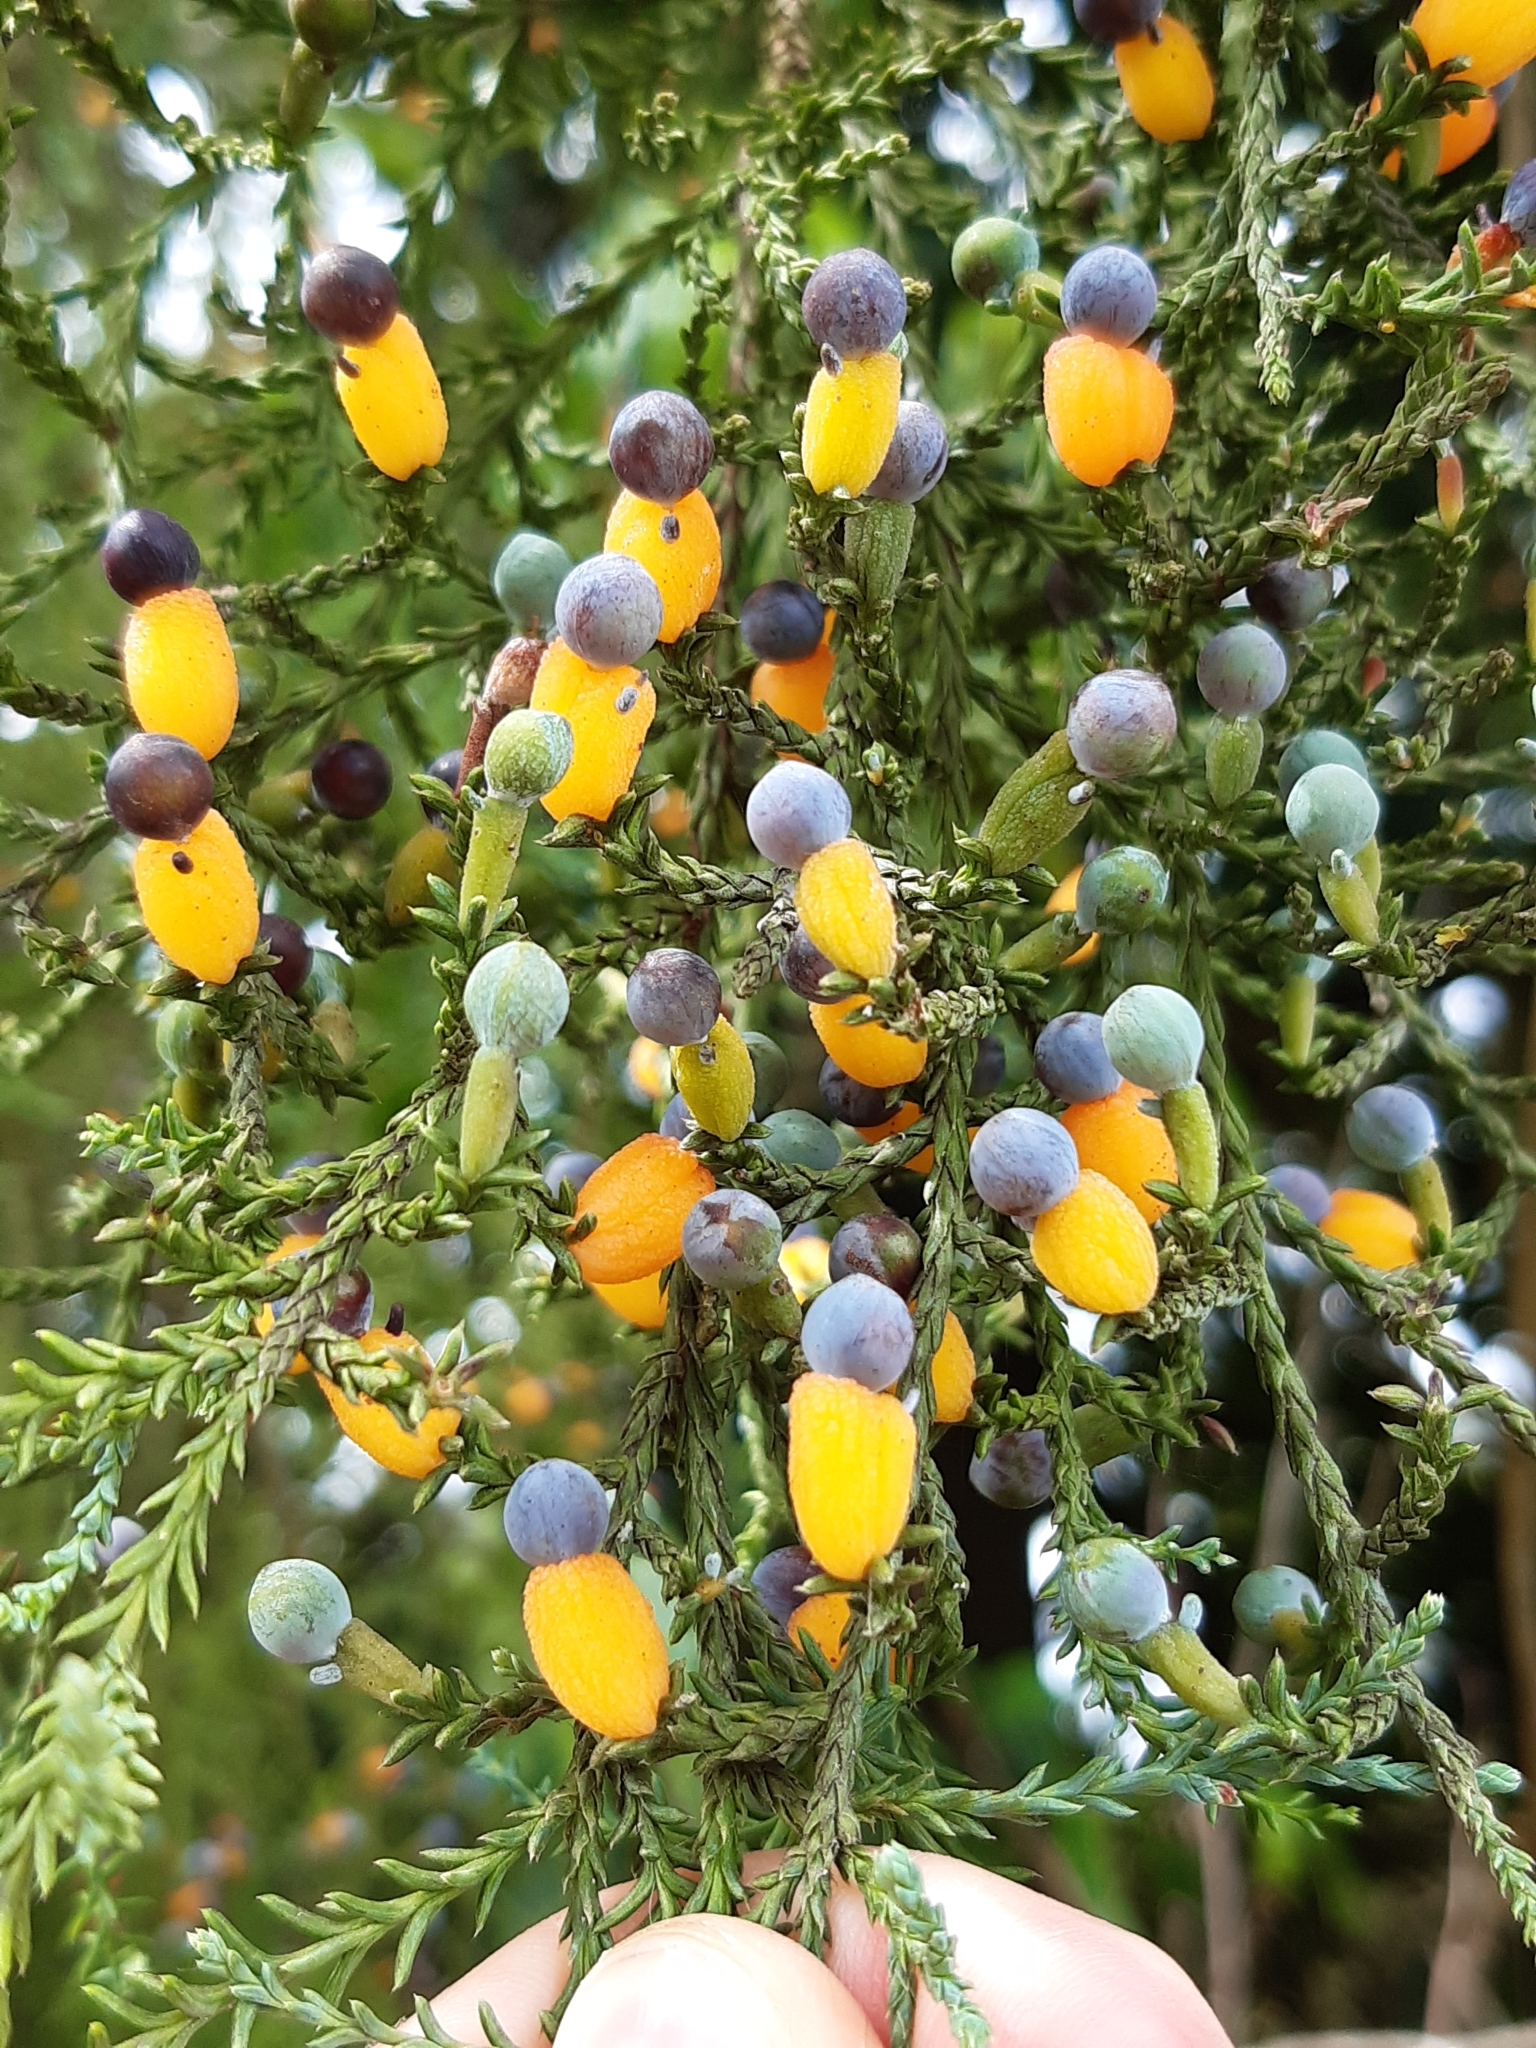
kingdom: Plantae
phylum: Tracheophyta
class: Pinopsida
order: Pinales
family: Podocarpaceae
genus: Dacrycarpus
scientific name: Dacrycarpus dacrydioides
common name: White pine
